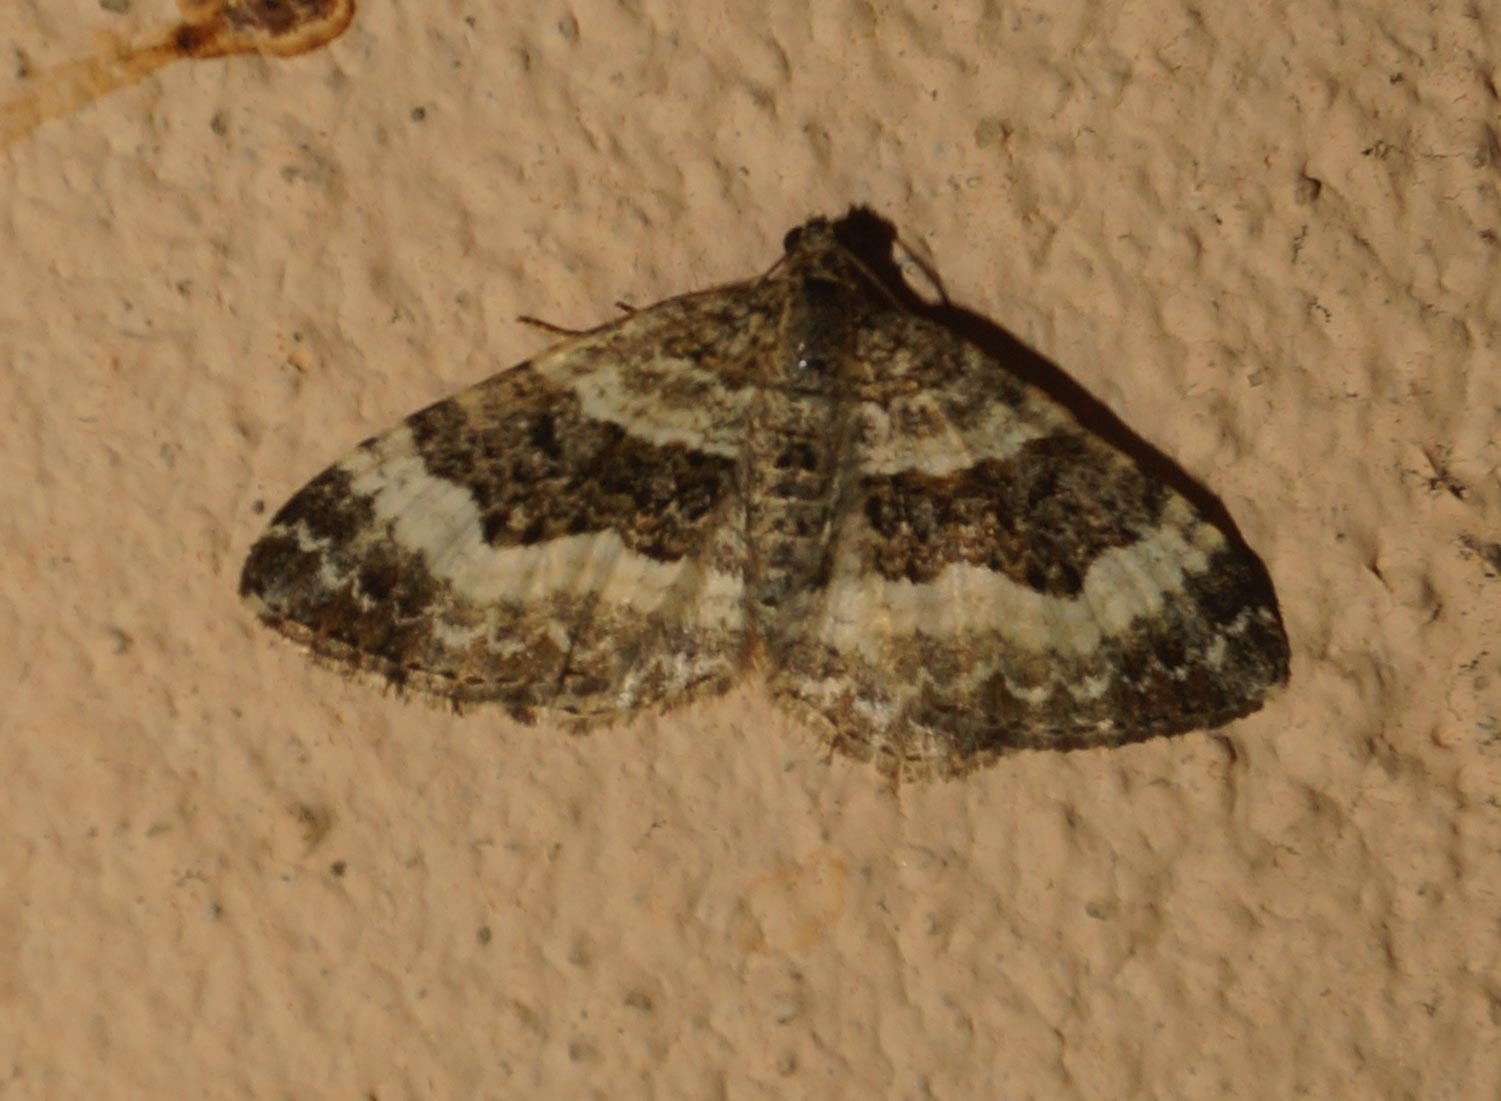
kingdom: Animalia
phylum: Arthropoda
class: Insecta
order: Lepidoptera
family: Geometridae
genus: Epirrhoe
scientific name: Epirrhoe alternata
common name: Common carpet
